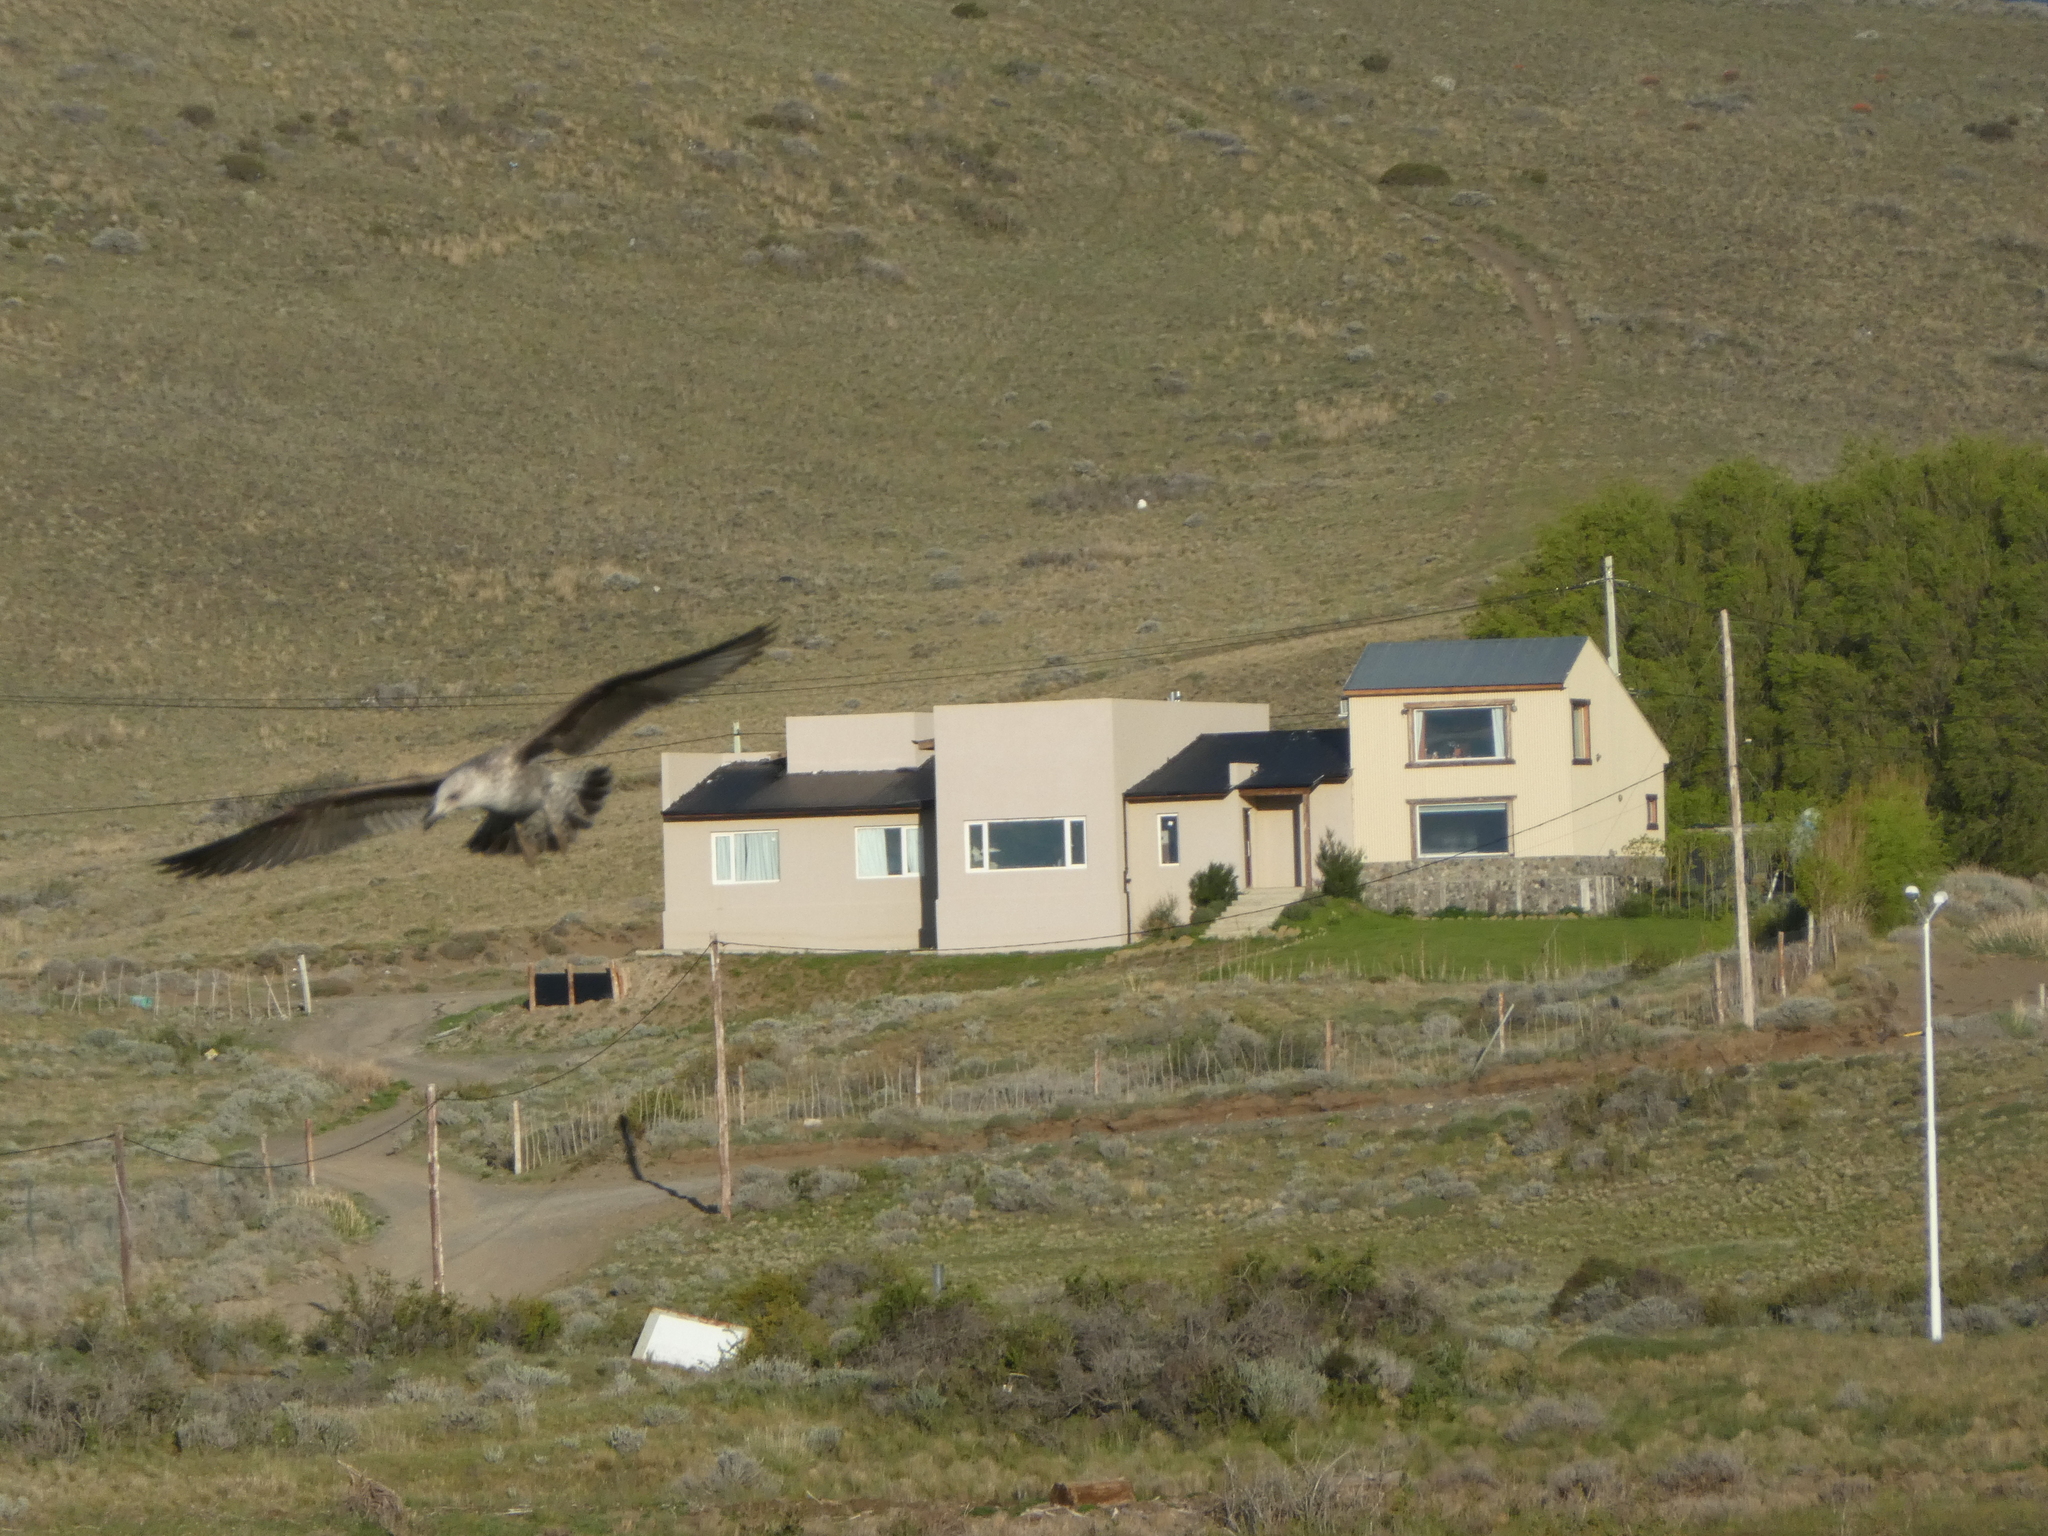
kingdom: Animalia
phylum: Chordata
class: Aves
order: Charadriiformes
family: Laridae
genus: Larus
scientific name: Larus dominicanus
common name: Kelp gull
